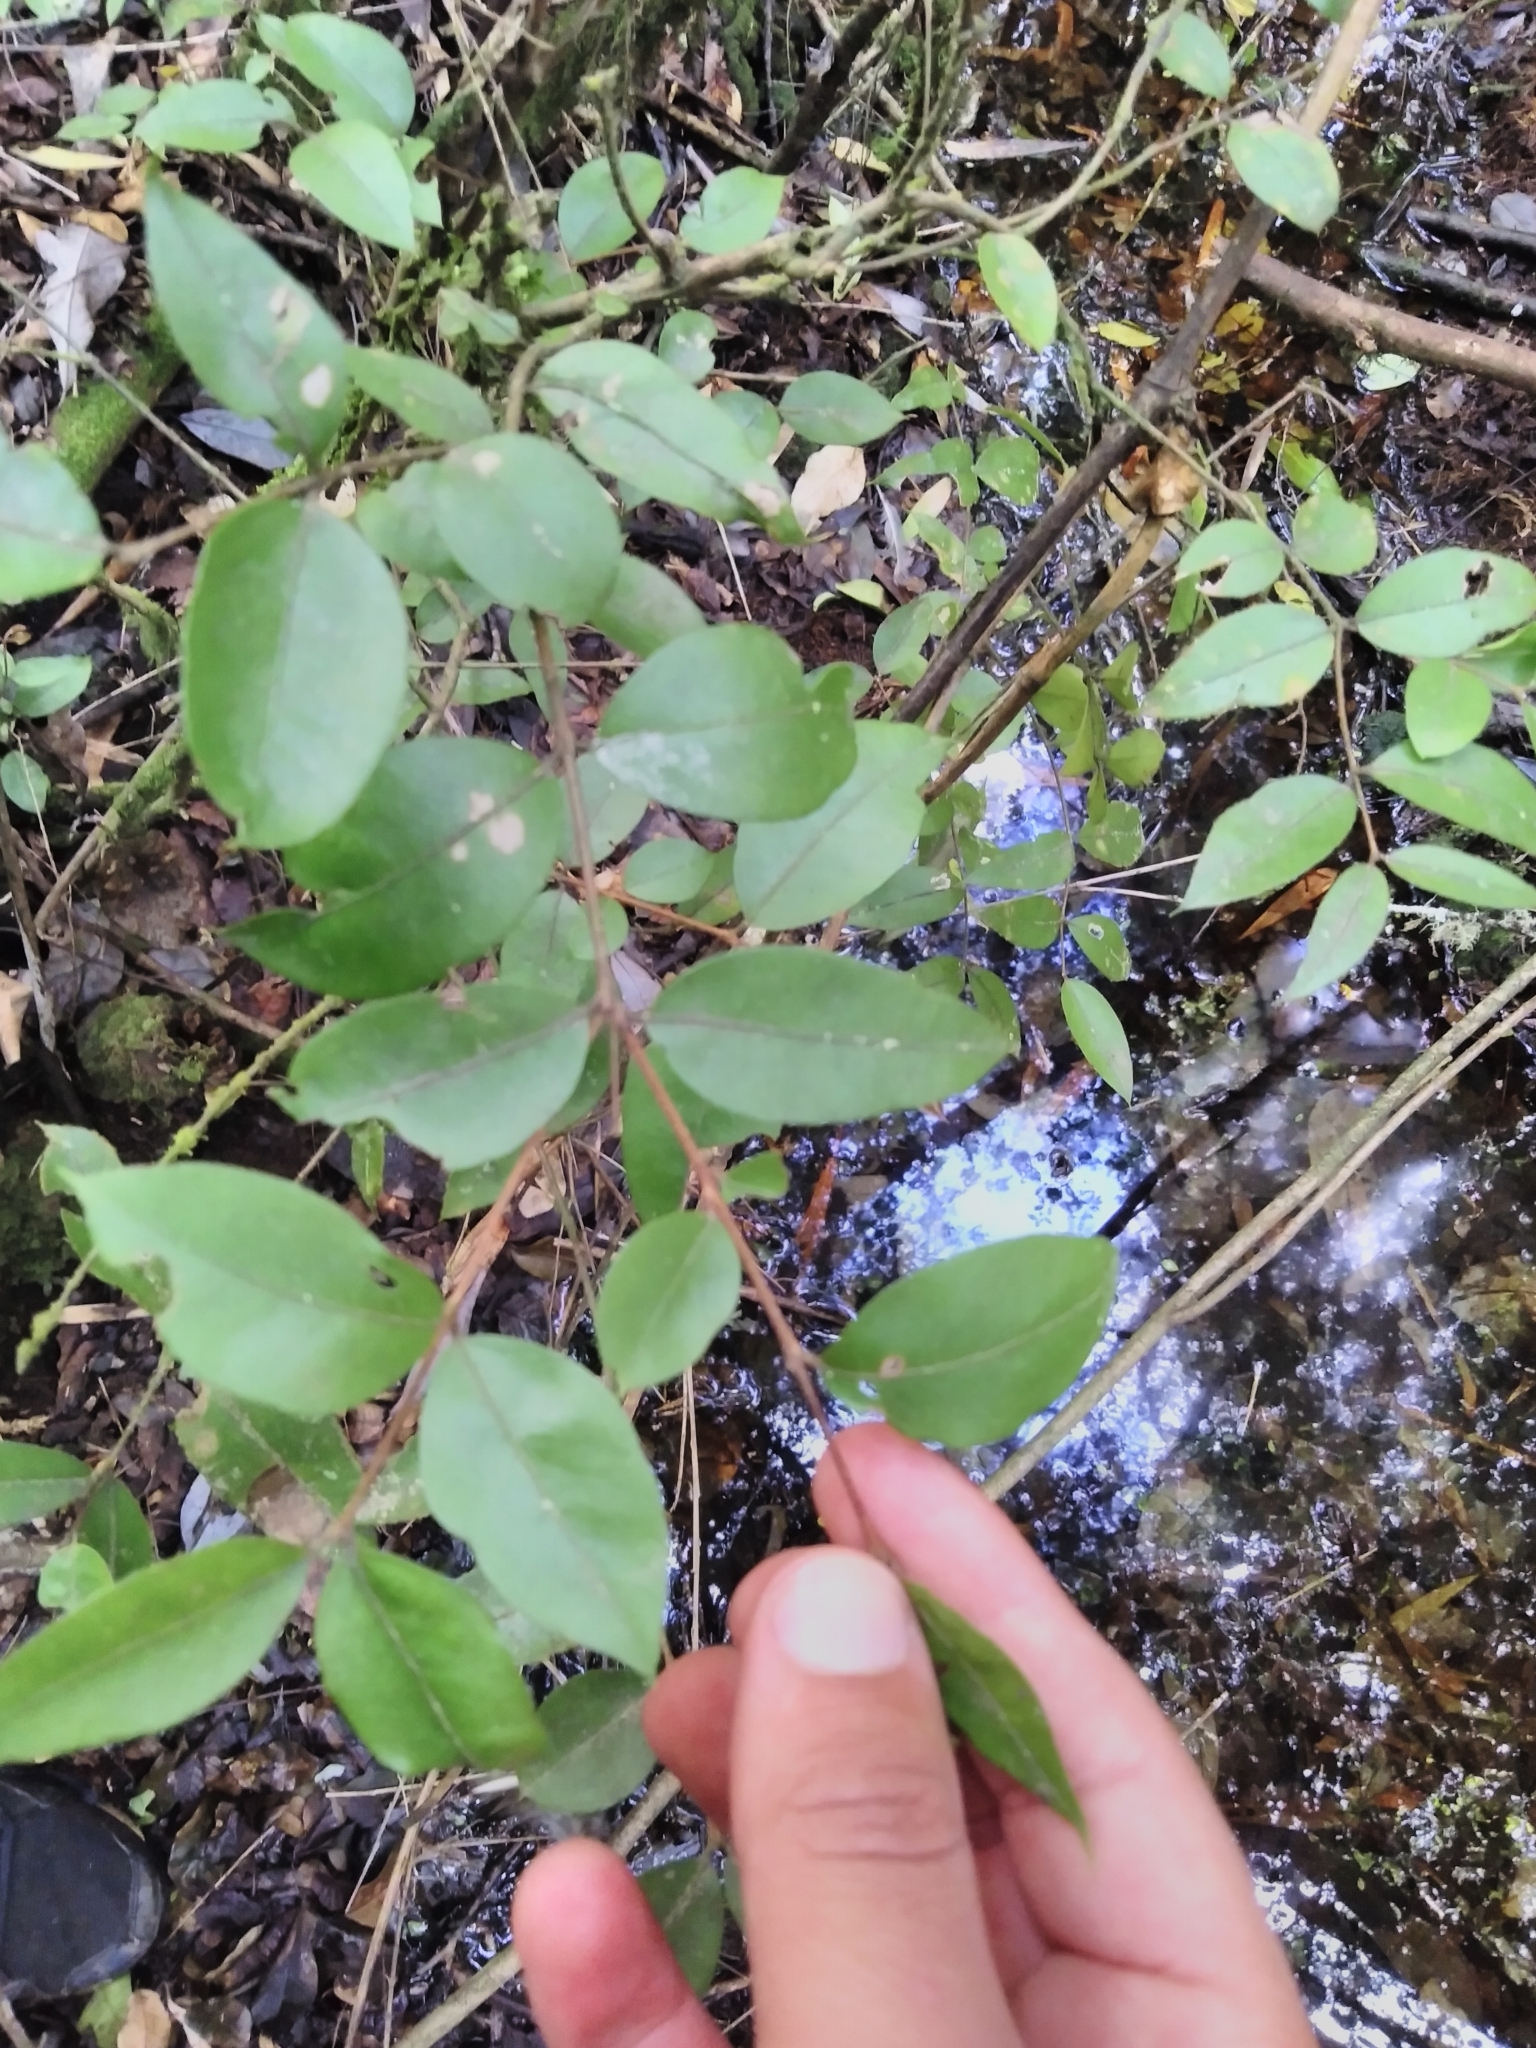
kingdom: Plantae
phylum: Tracheophyta
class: Magnoliopsida
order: Myrtales
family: Myrtaceae
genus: Amomyrtus
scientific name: Amomyrtus luma
